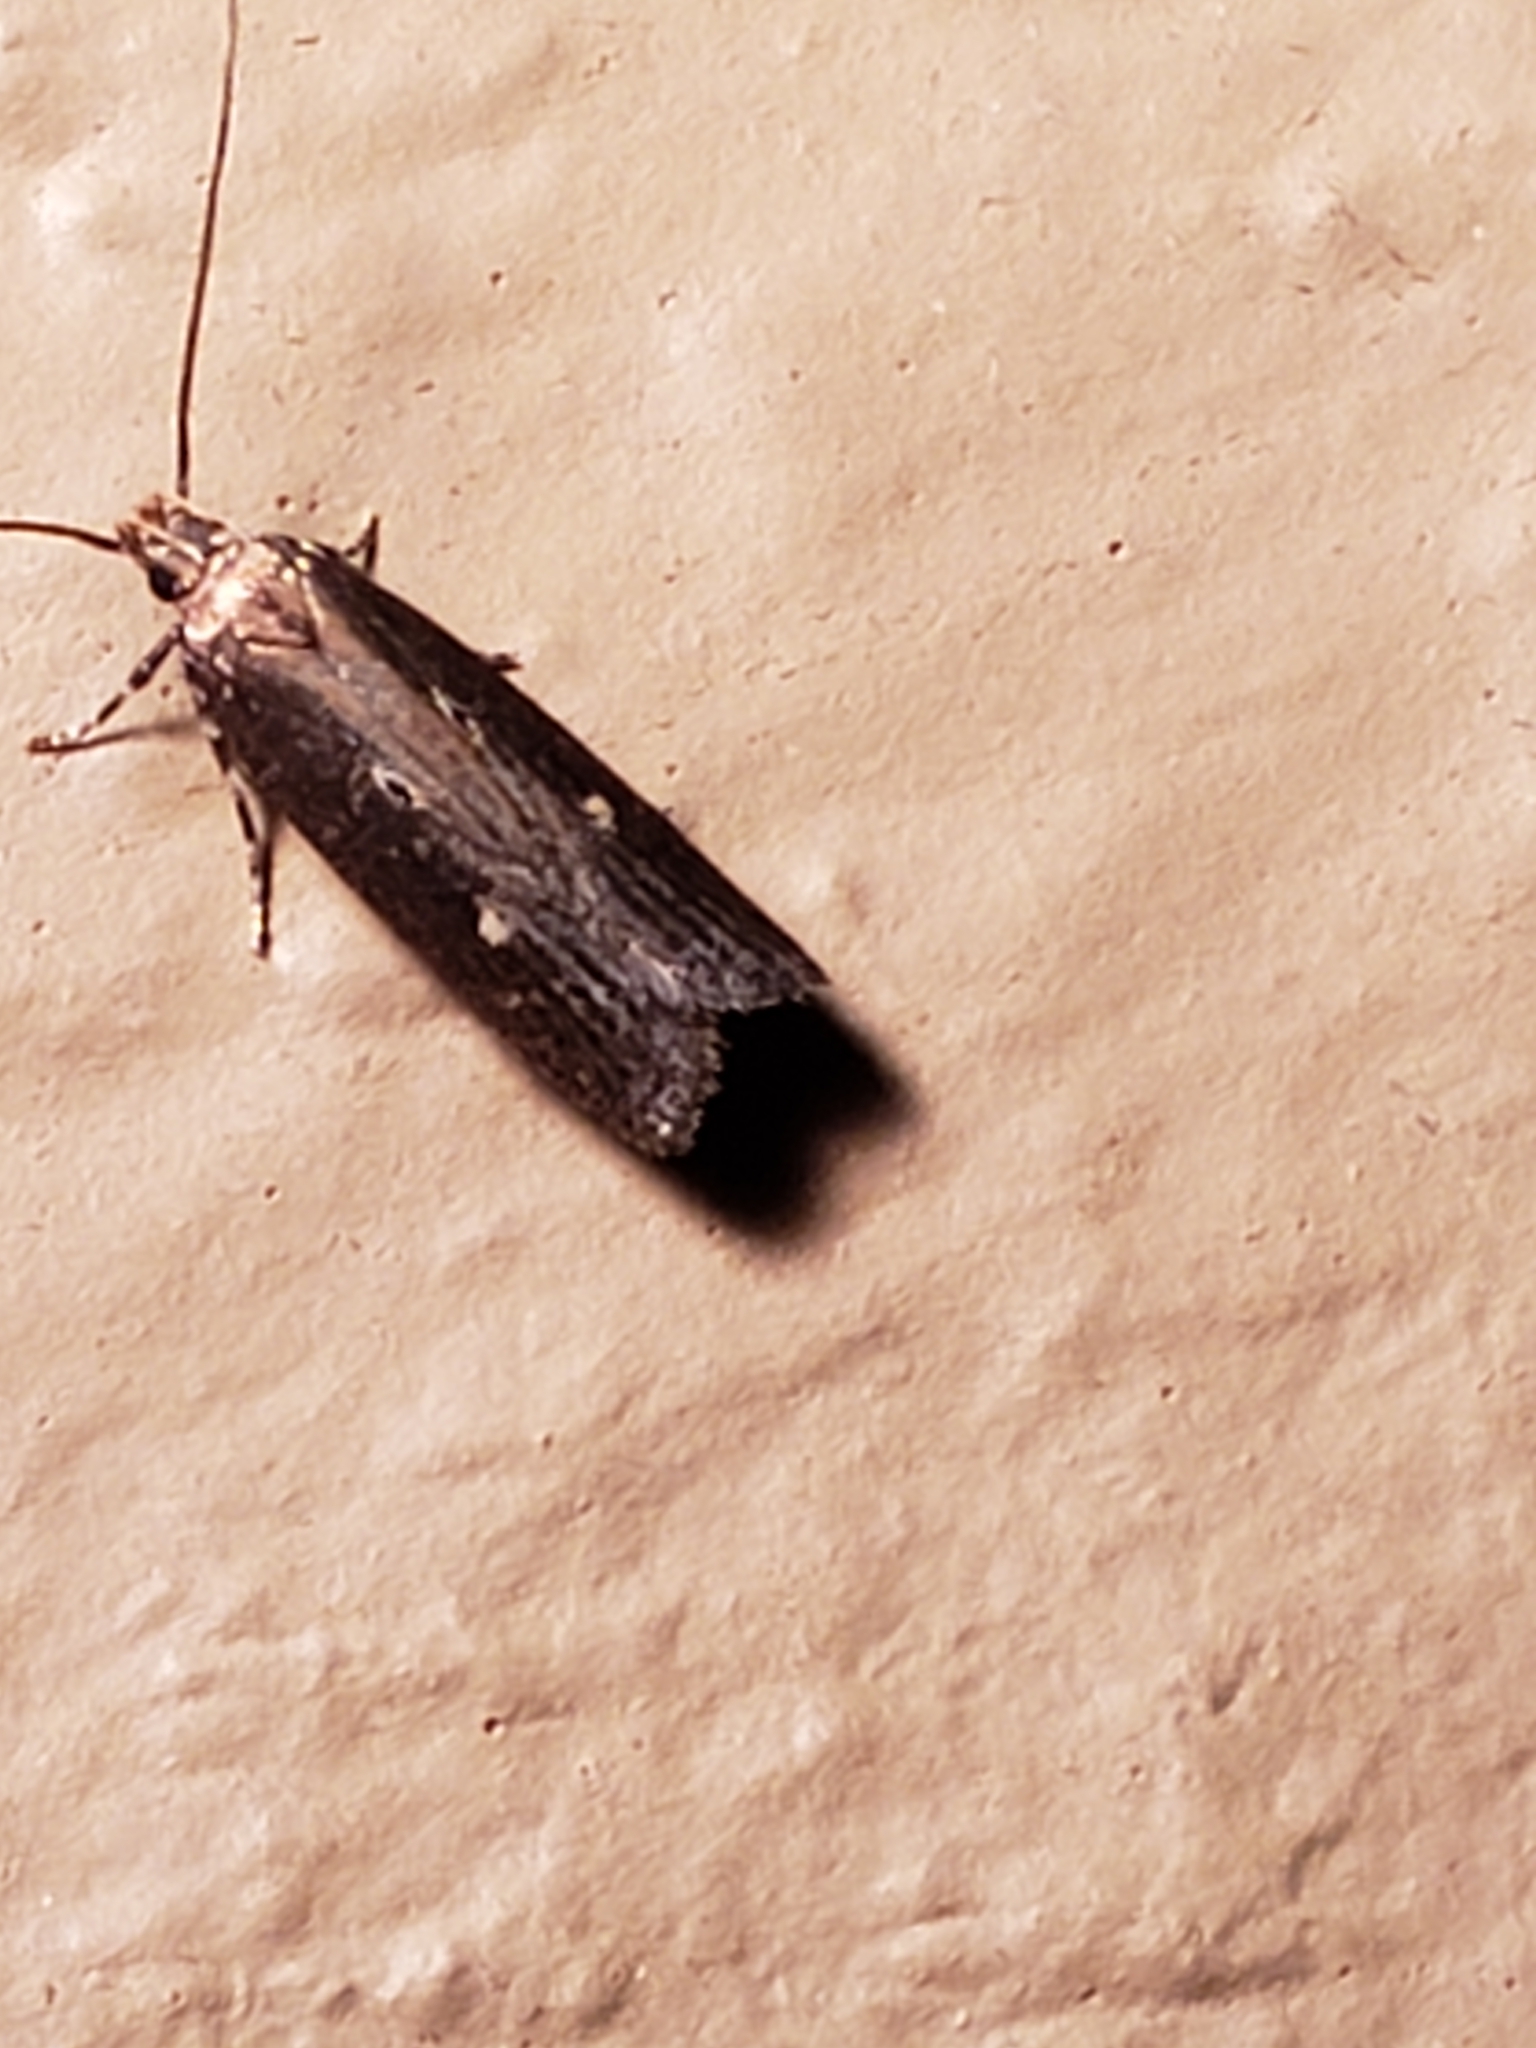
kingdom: Animalia
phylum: Arthropoda
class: Insecta
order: Lepidoptera
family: Gelechiidae
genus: Chionodes
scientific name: Chionodes discoocellella
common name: Eye-ringed chionodes moth
